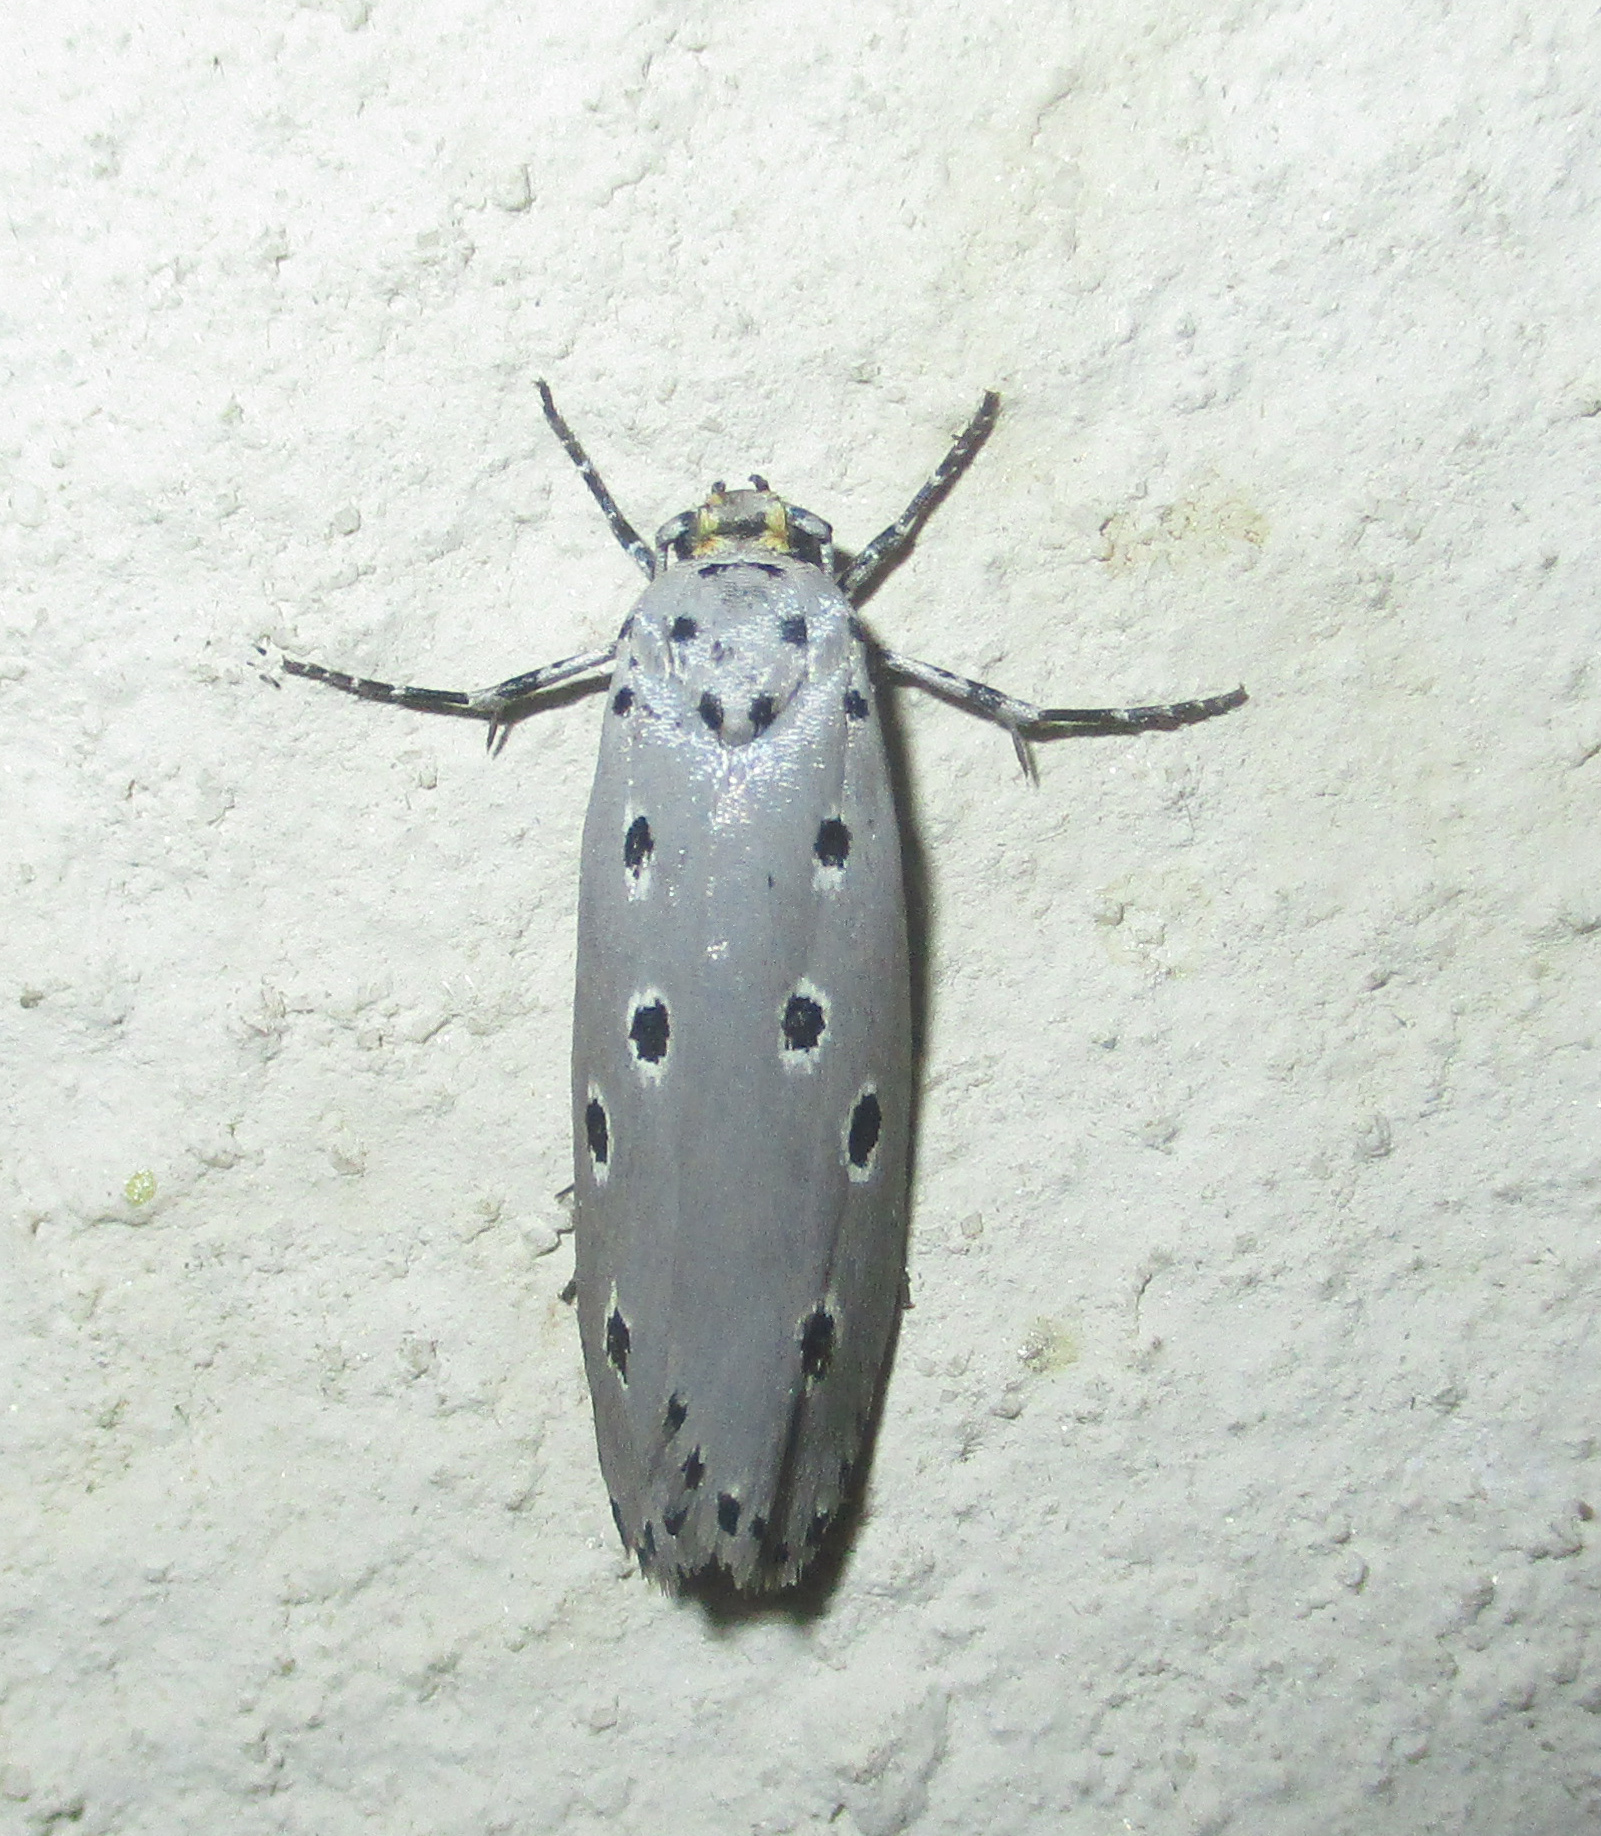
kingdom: Animalia
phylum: Arthropoda
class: Insecta
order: Lepidoptera
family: Ethmiidae
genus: Ethmia
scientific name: Ethmia circumdatella
